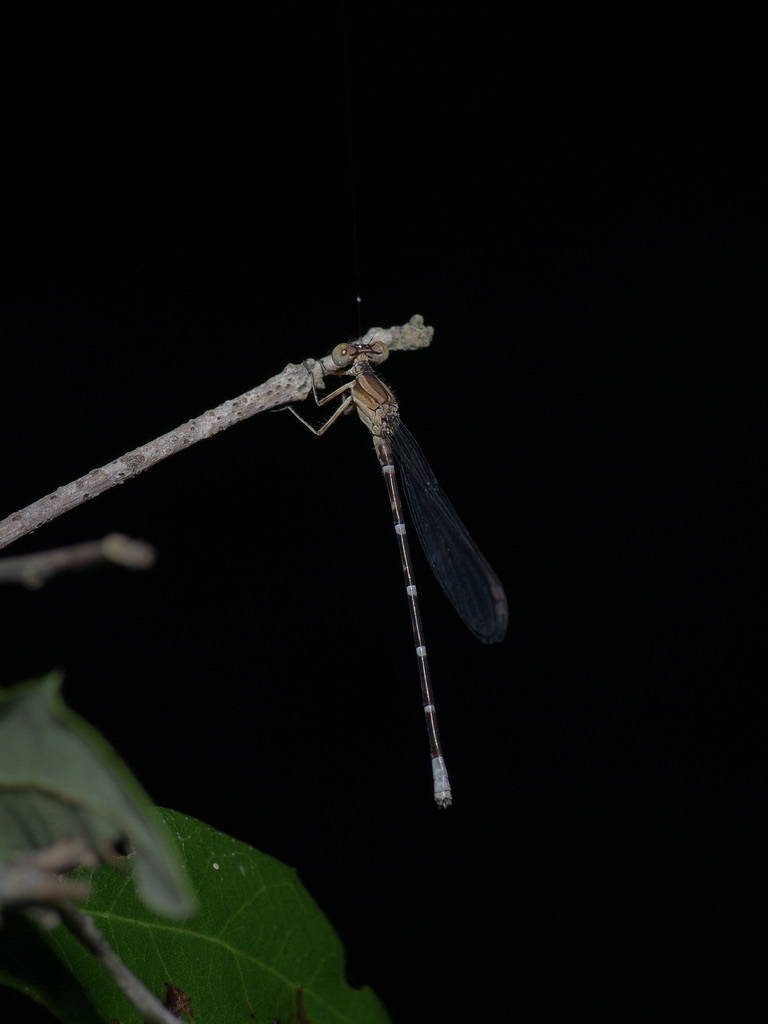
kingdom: Animalia
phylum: Arthropoda
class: Insecta
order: Odonata
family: Coenagrionidae
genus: Argia
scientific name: Argia sedula
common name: Blue-ringed dancer
